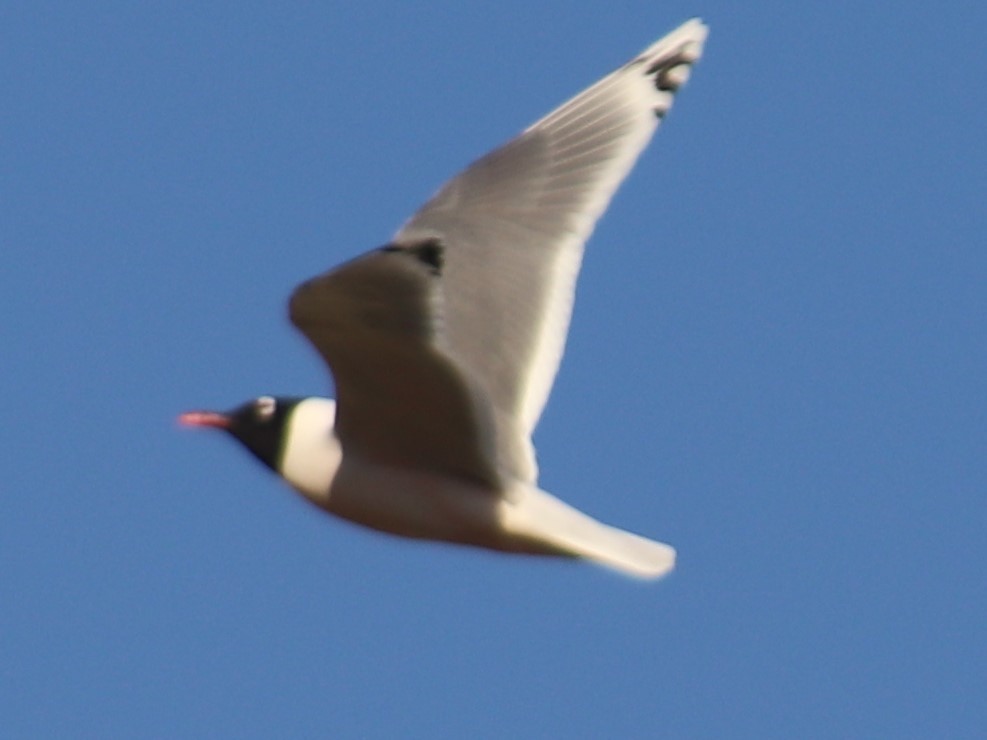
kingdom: Animalia
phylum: Chordata
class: Aves
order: Charadriiformes
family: Laridae
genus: Leucophaeus
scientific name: Leucophaeus pipixcan
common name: Franklin's gull
